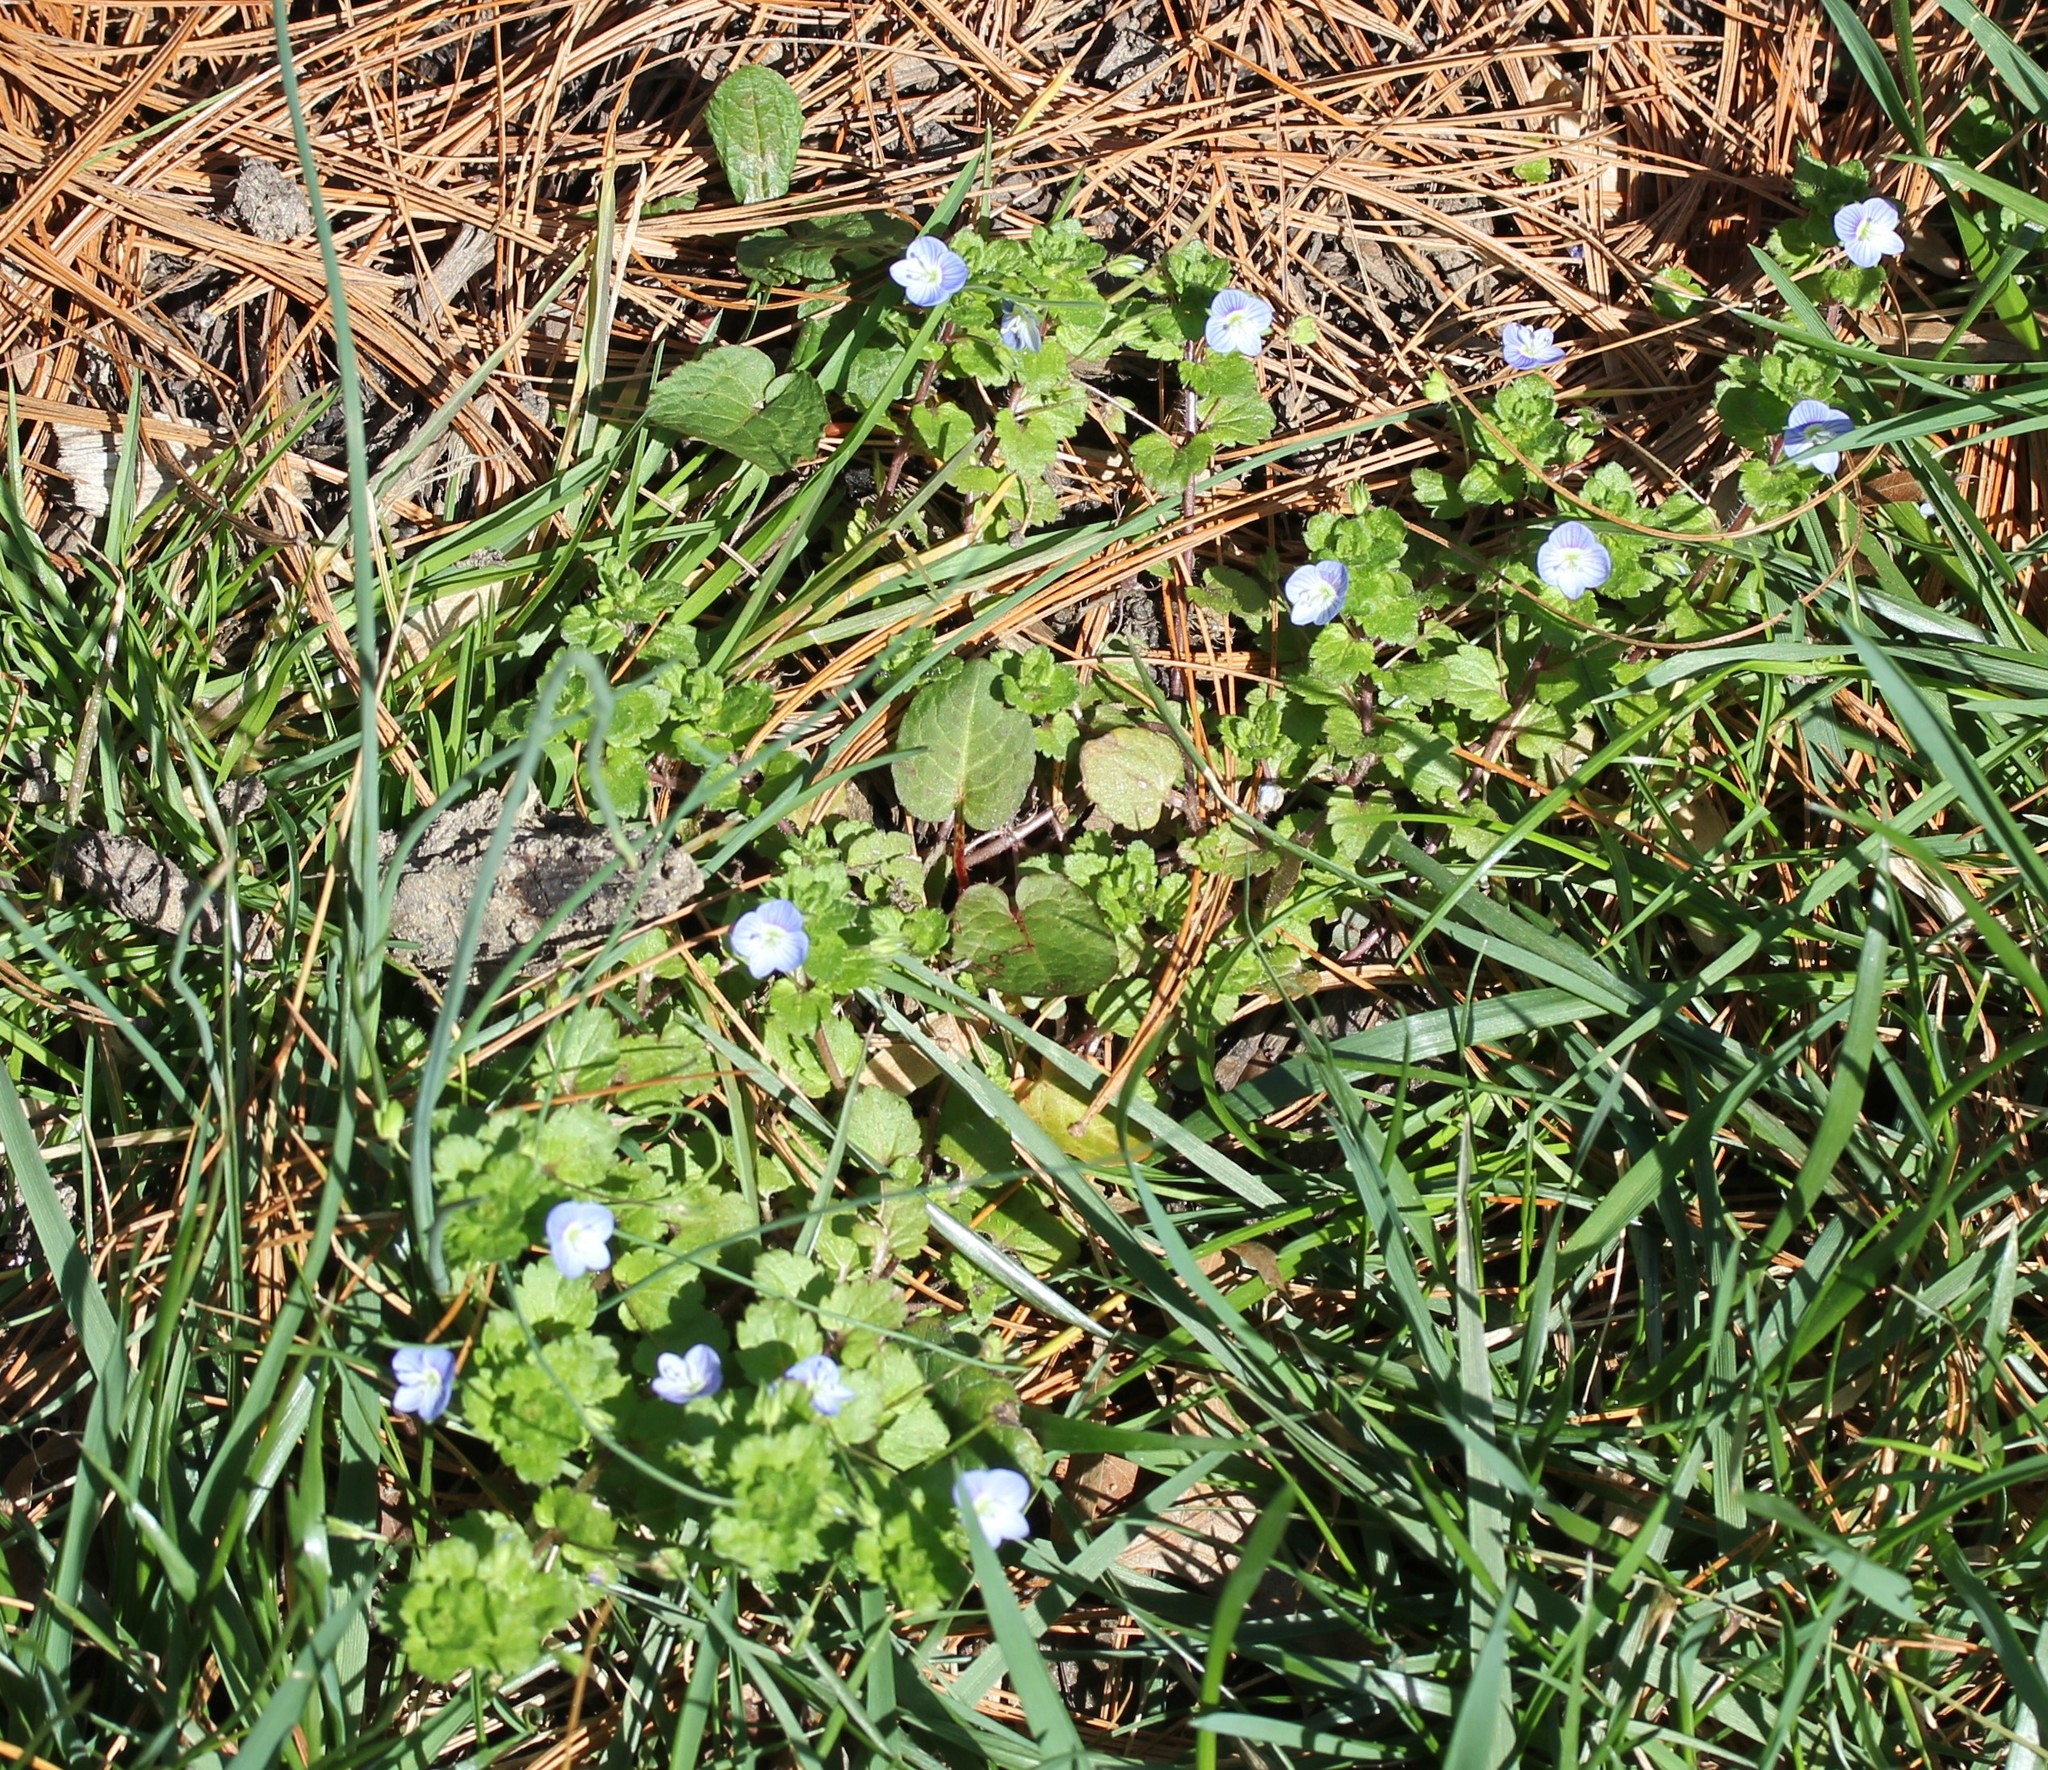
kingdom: Plantae
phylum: Tracheophyta
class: Magnoliopsida
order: Lamiales
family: Plantaginaceae
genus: Veronica
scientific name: Veronica persica
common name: Common field-speedwell
